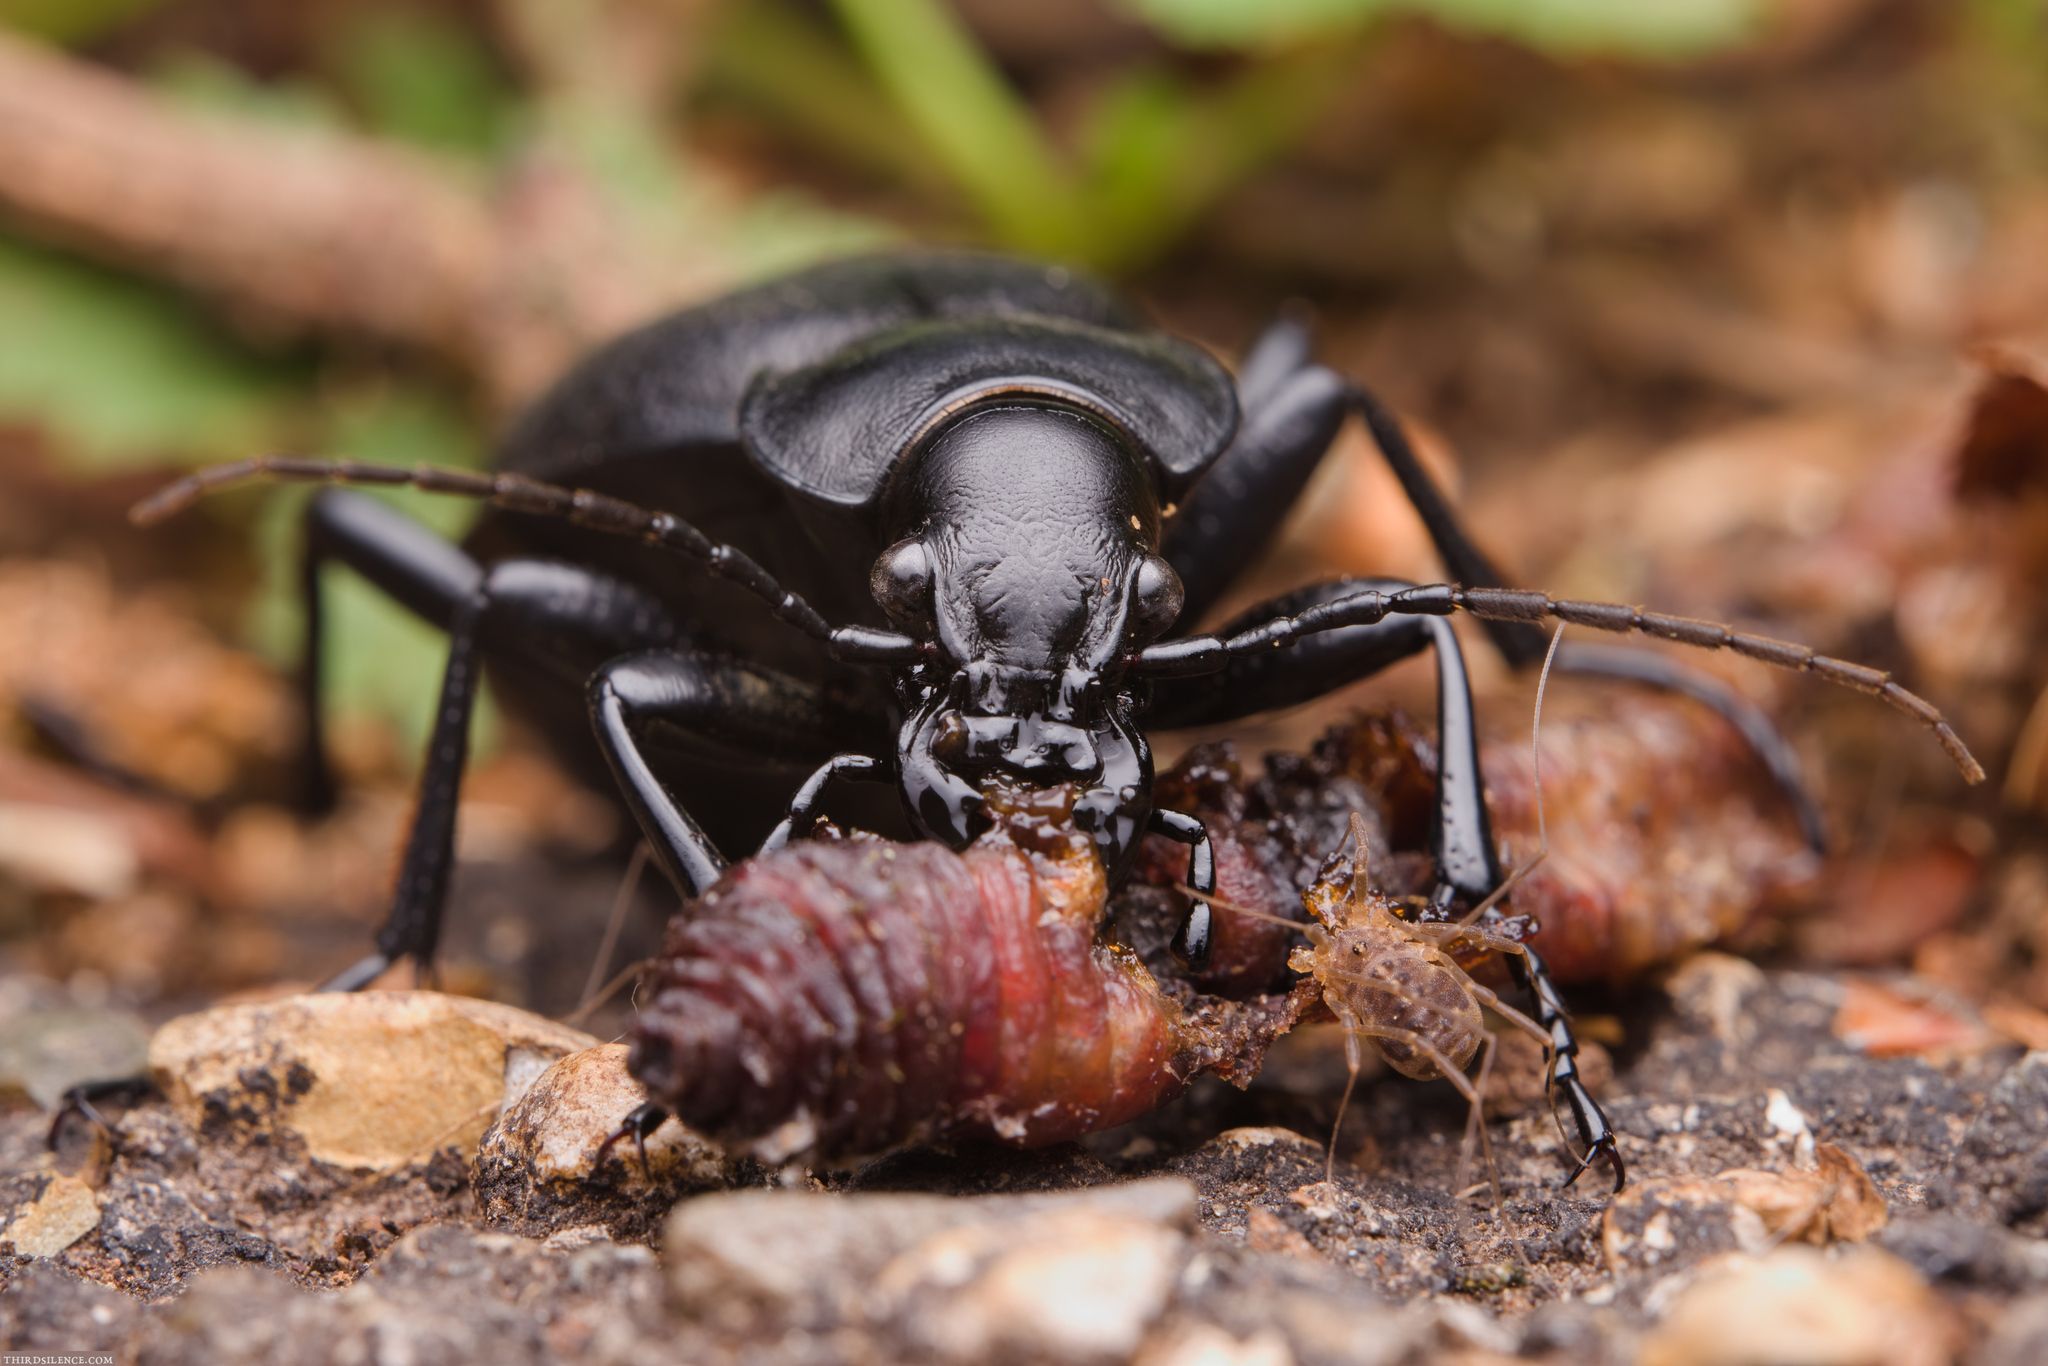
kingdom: Animalia
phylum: Arthropoda
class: Insecta
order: Coleoptera
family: Carabidae
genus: Carabus
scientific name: Carabus coriaceus
